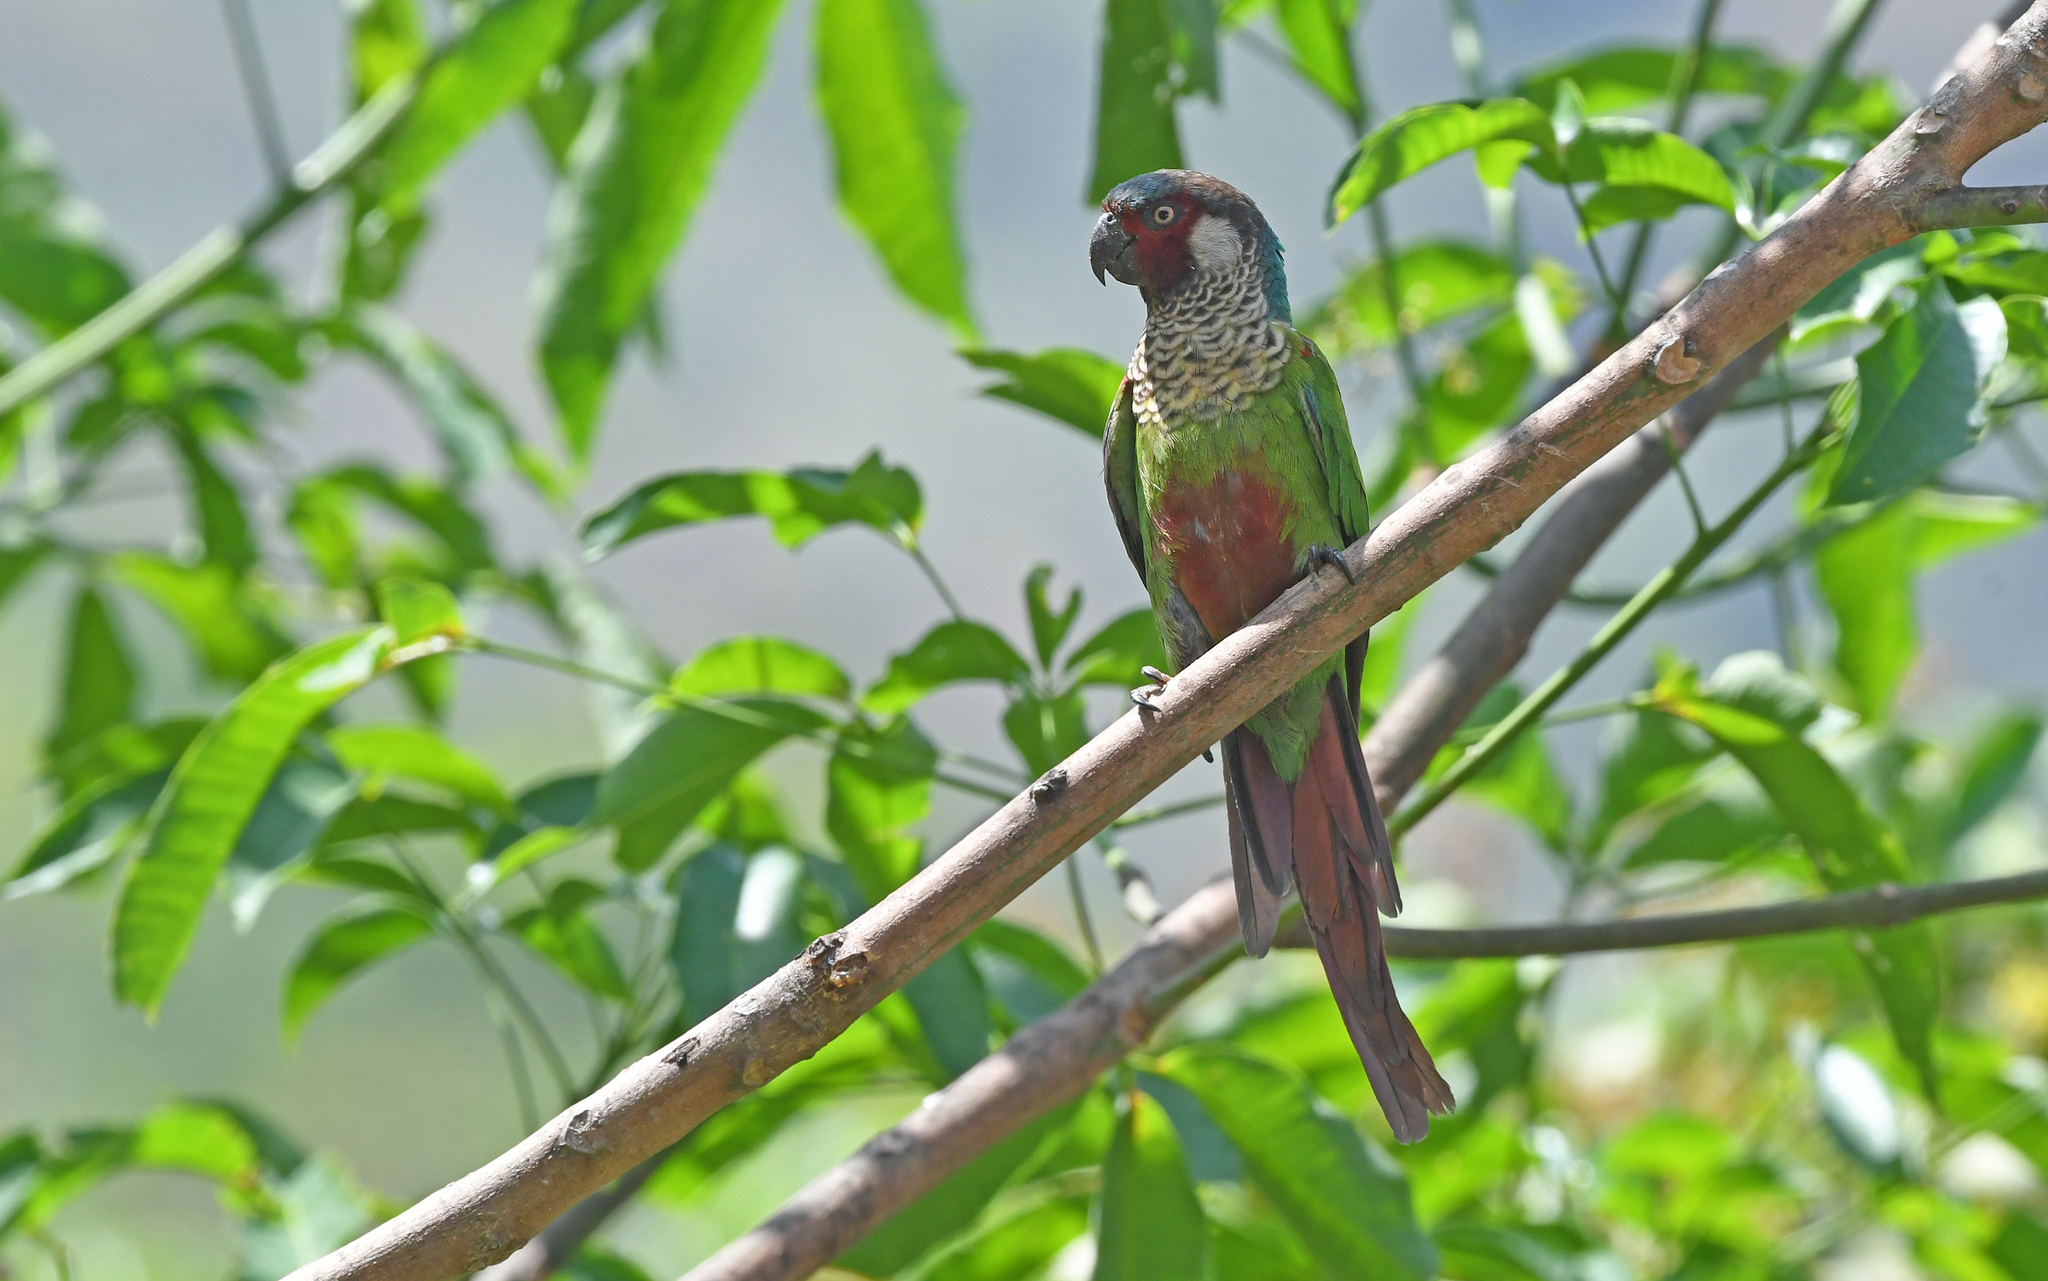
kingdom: Animalia
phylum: Chordata
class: Aves
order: Psittaciformes
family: Psittacidae
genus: Pyrrhura
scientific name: Pyrrhura picta
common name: Painted parakeet
